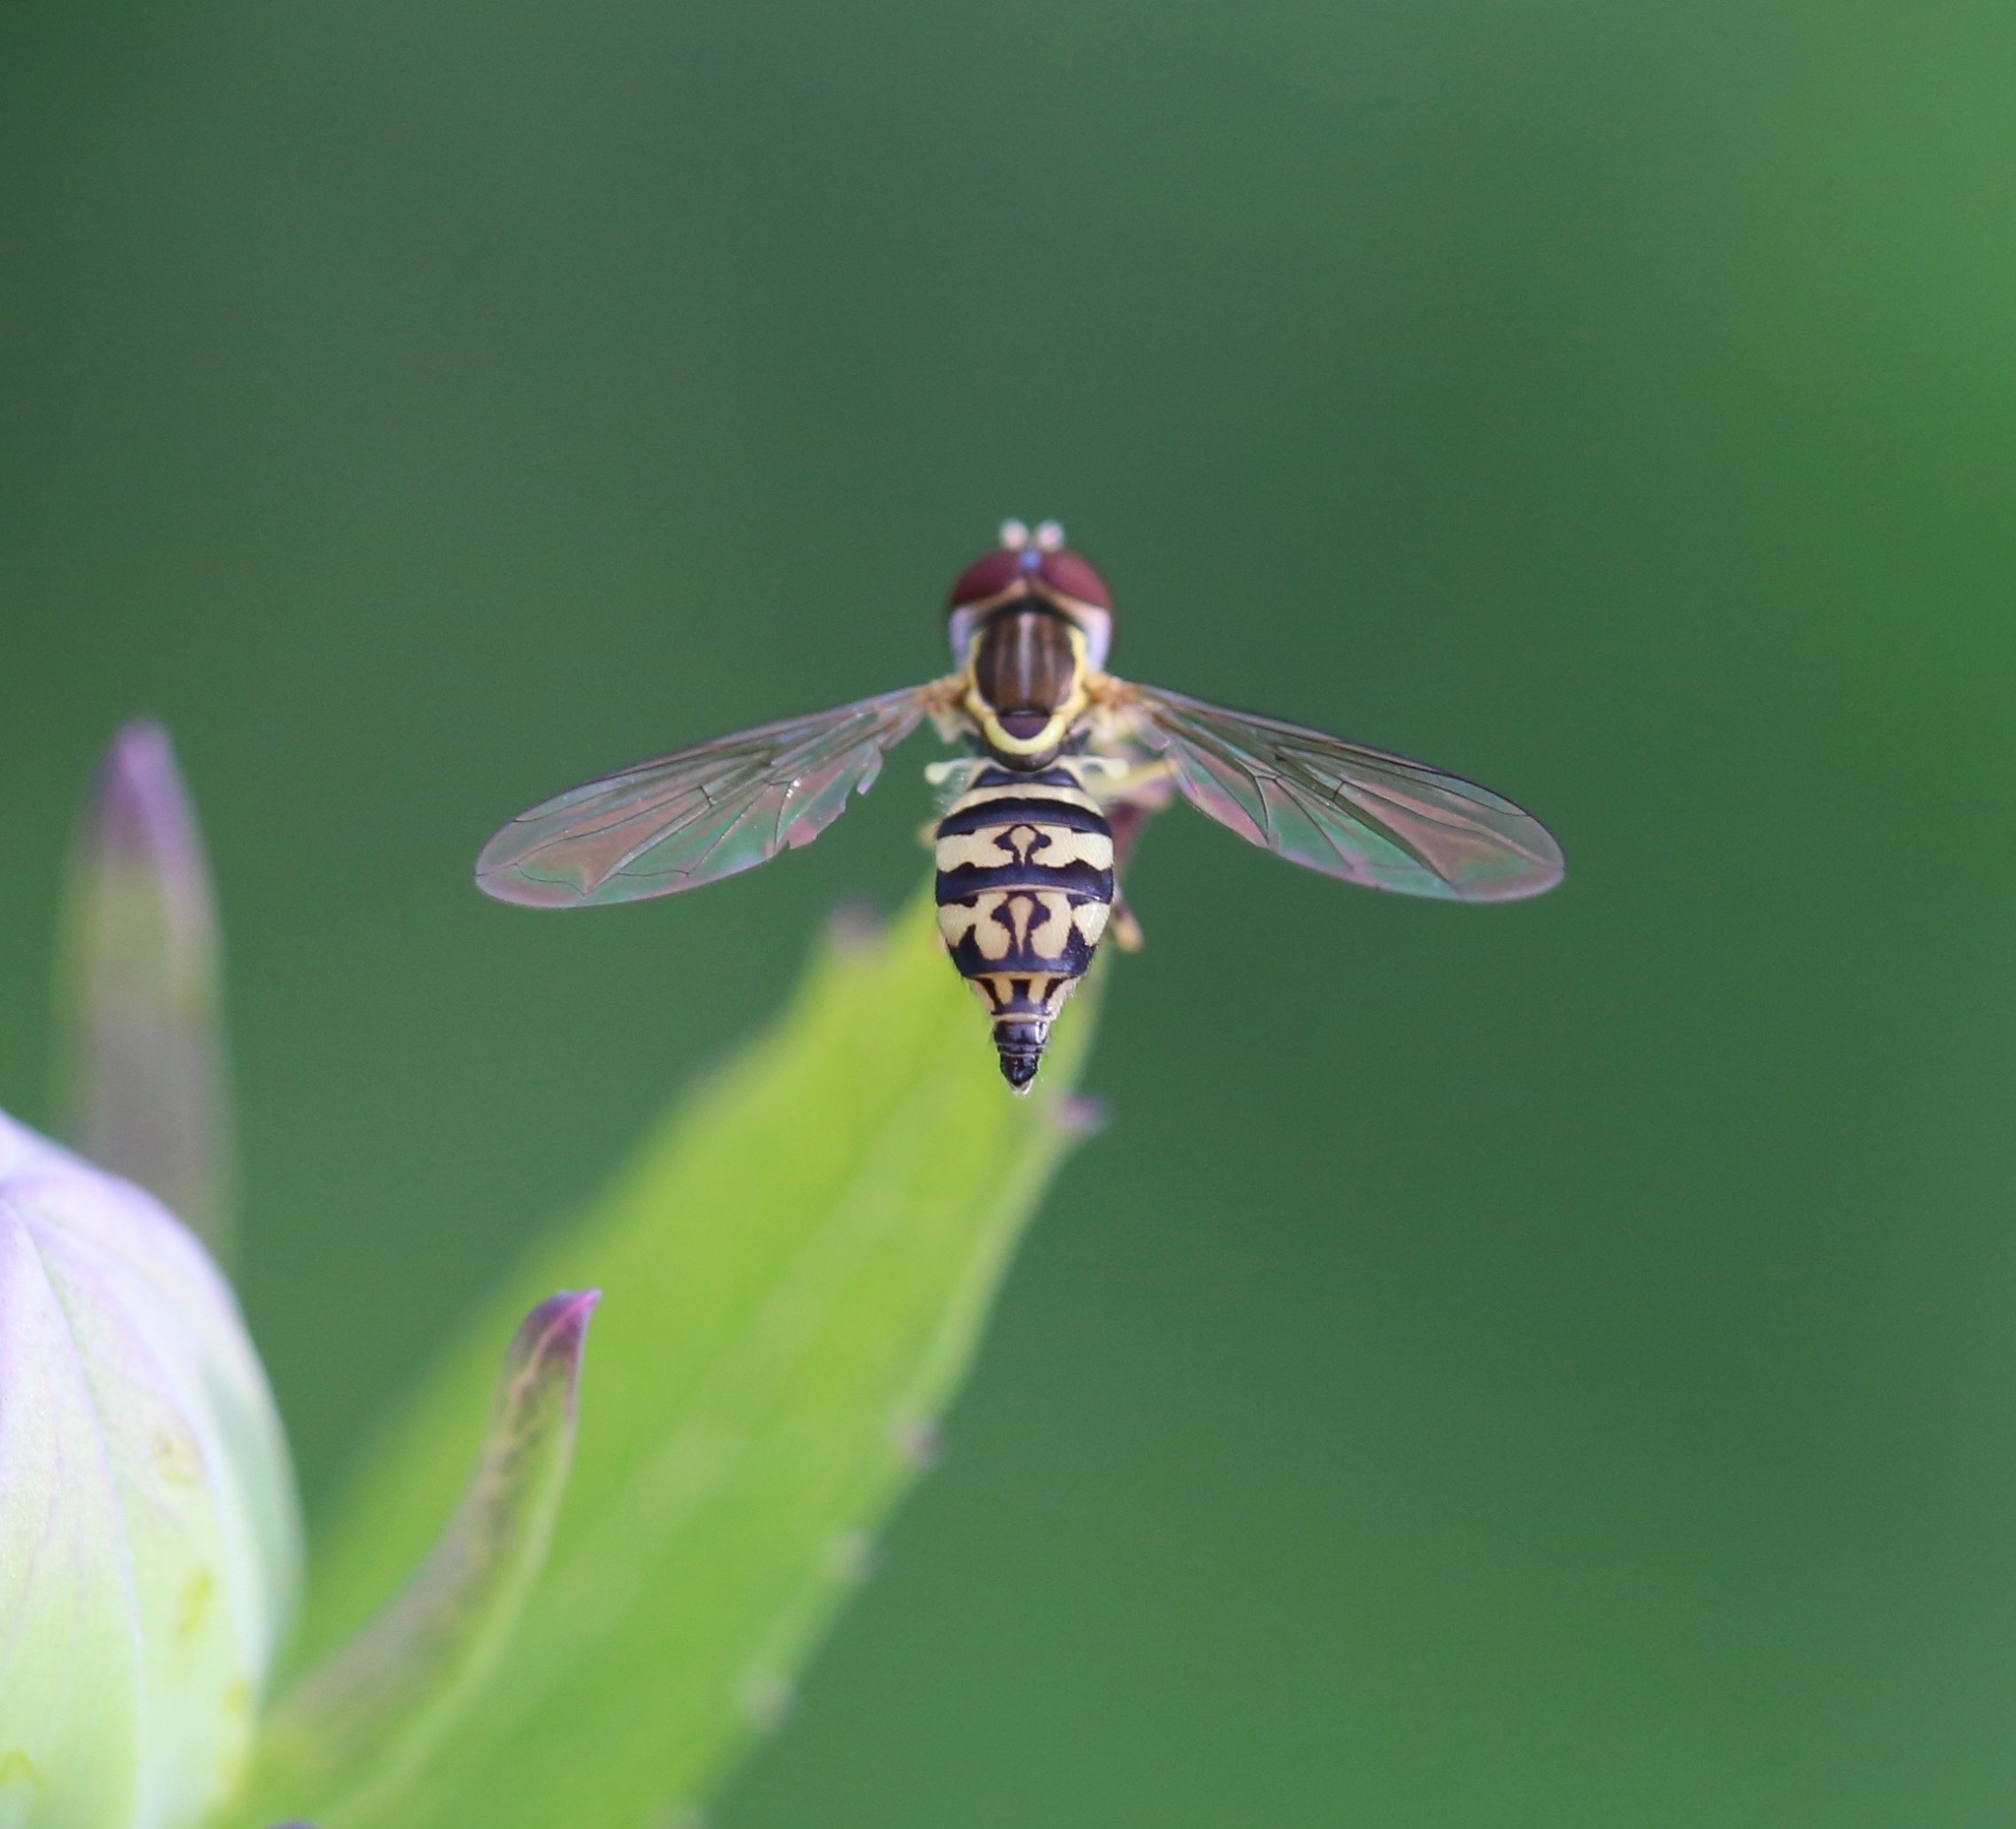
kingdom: Animalia
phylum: Arthropoda
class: Insecta
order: Diptera
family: Syrphidae
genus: Toxomerus
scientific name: Toxomerus geminatus
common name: Eastern calligrapher
